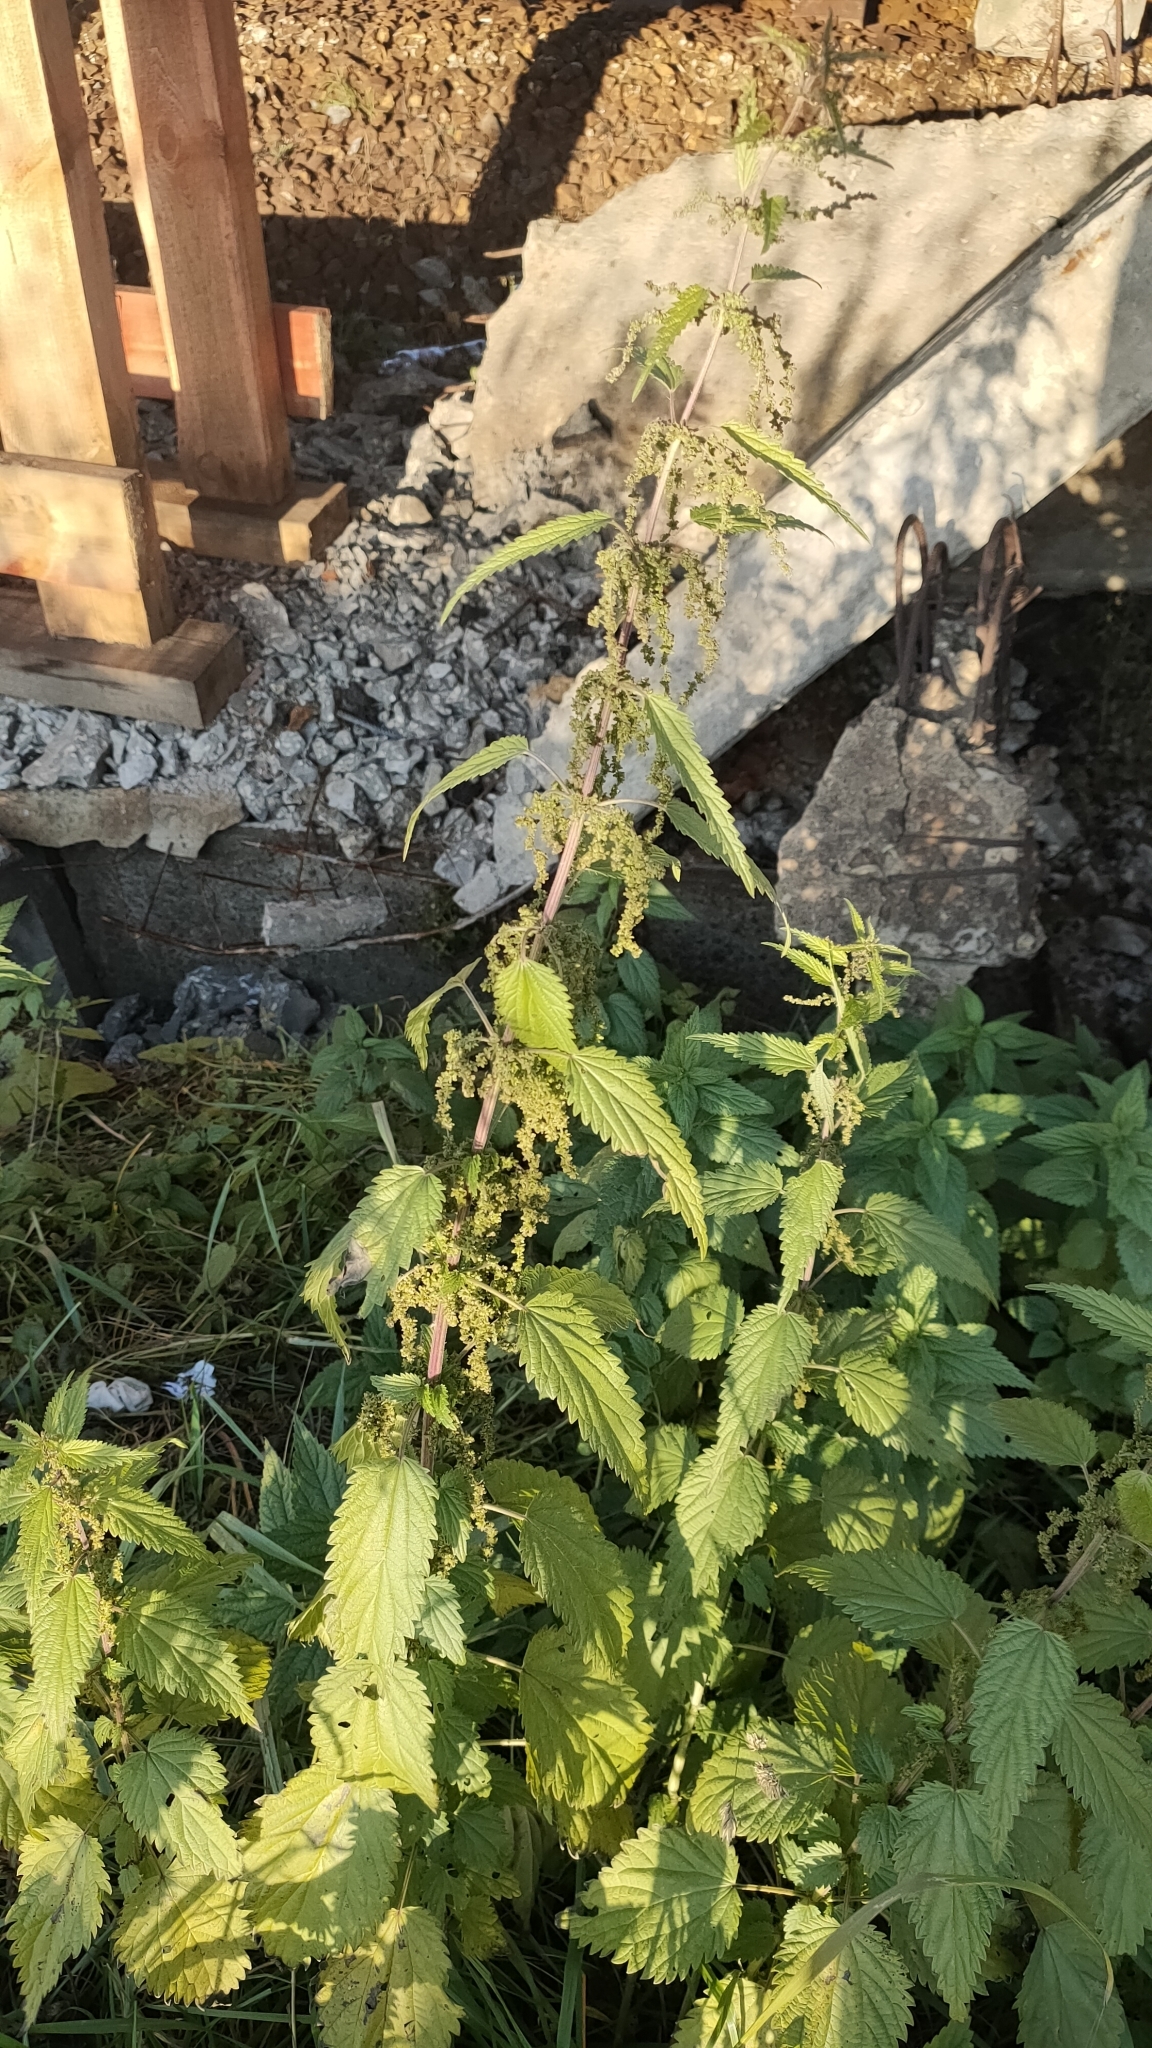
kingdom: Plantae
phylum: Tracheophyta
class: Magnoliopsida
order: Rosales
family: Urticaceae
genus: Urtica
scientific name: Urtica dioica
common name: Common nettle
